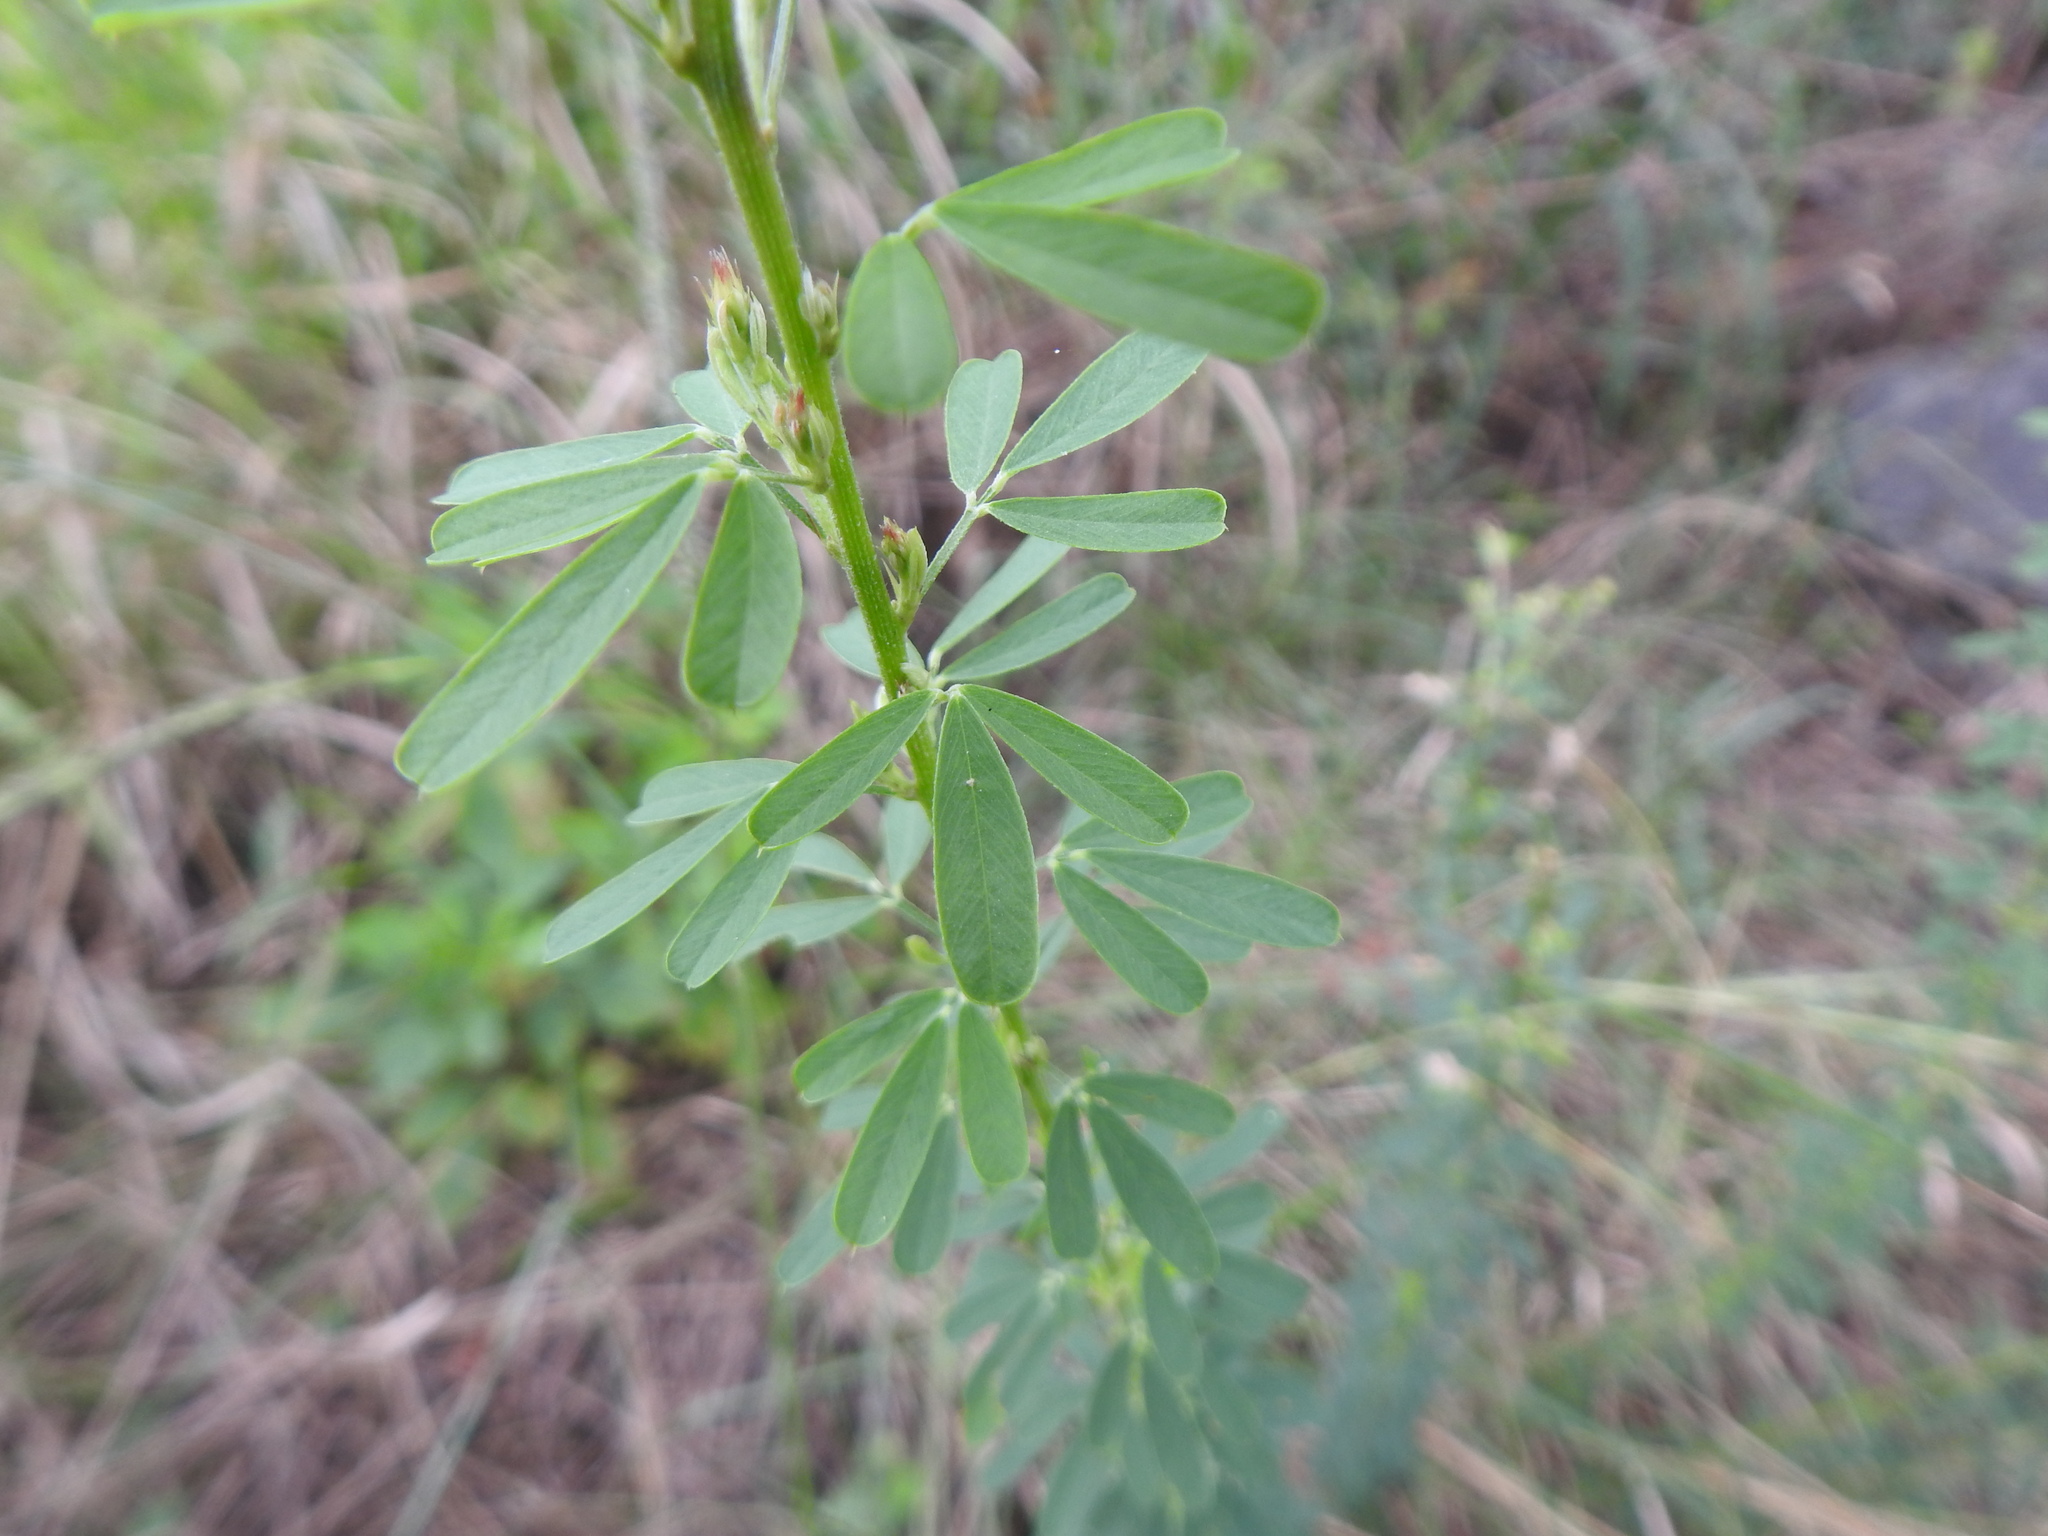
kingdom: Plantae
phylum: Tracheophyta
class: Magnoliopsida
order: Fabales
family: Fabaceae
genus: Lespedeza
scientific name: Lespedeza cuneata
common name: Chinese bush-clover
